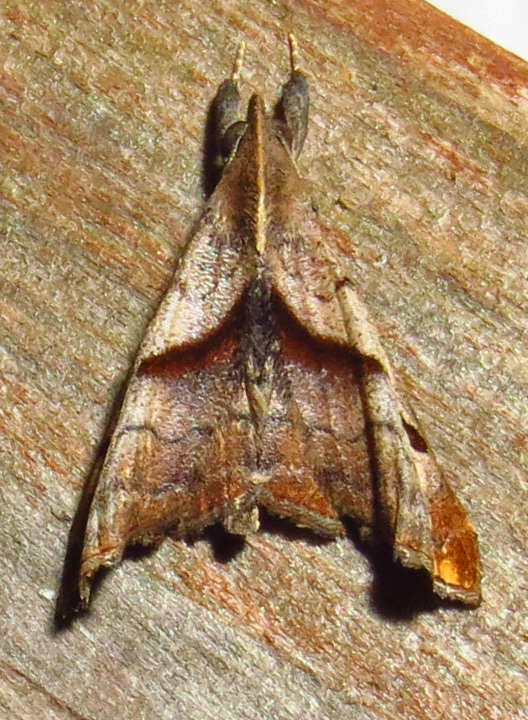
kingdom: Animalia
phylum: Arthropoda
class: Insecta
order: Lepidoptera
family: Erebidae
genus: Palthis
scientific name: Palthis angulalis
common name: Dark-spotted palthis moth
